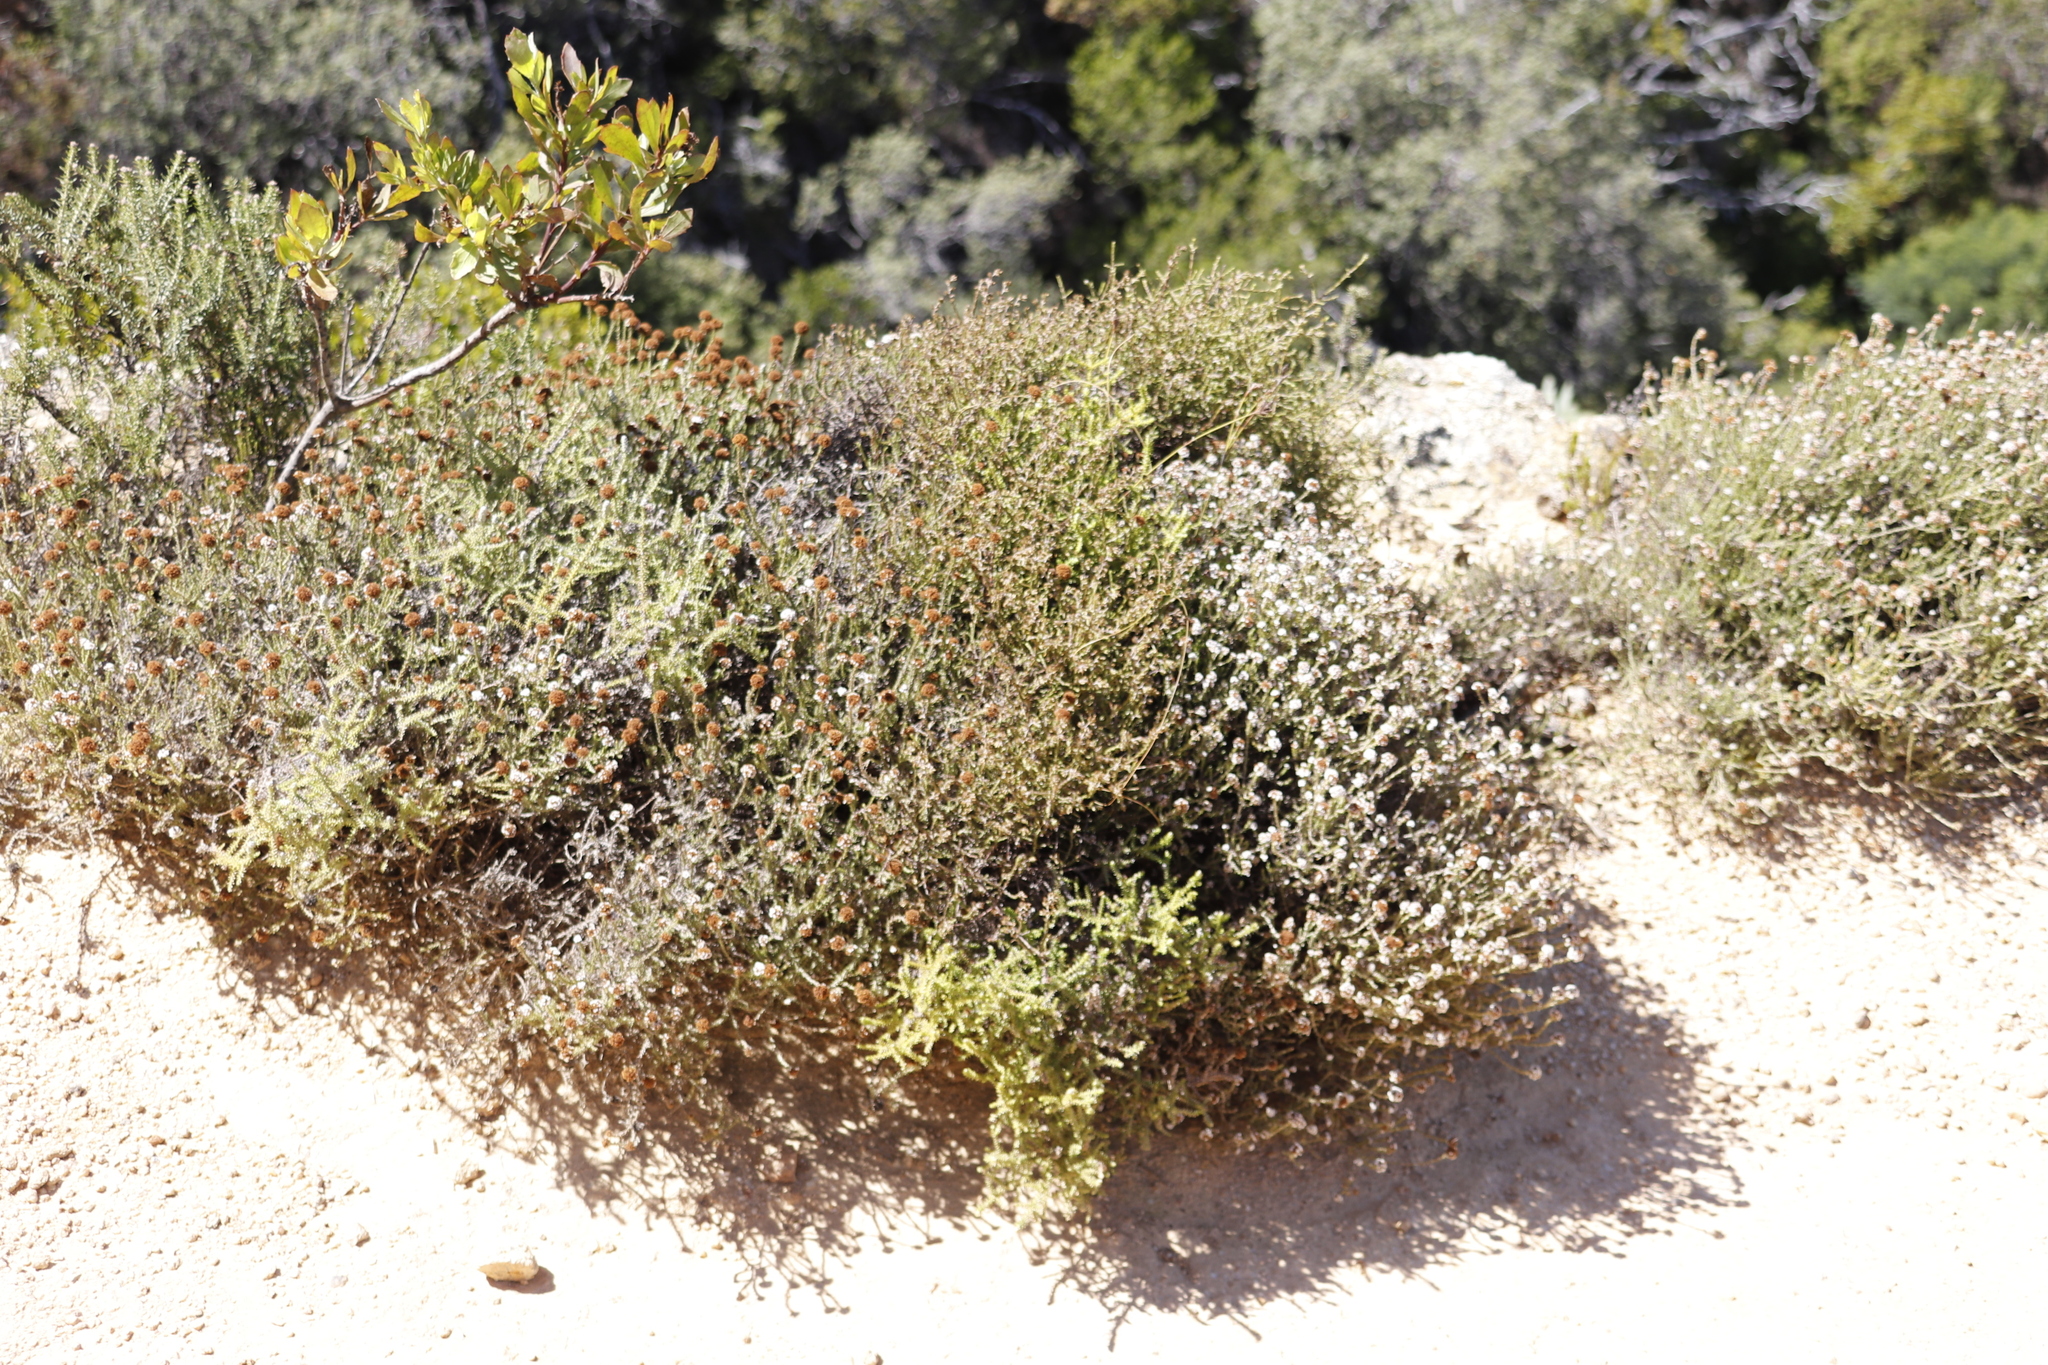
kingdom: Plantae
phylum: Tracheophyta
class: Magnoliopsida
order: Asterales
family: Asteraceae
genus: Stoebe
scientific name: Stoebe capitata
